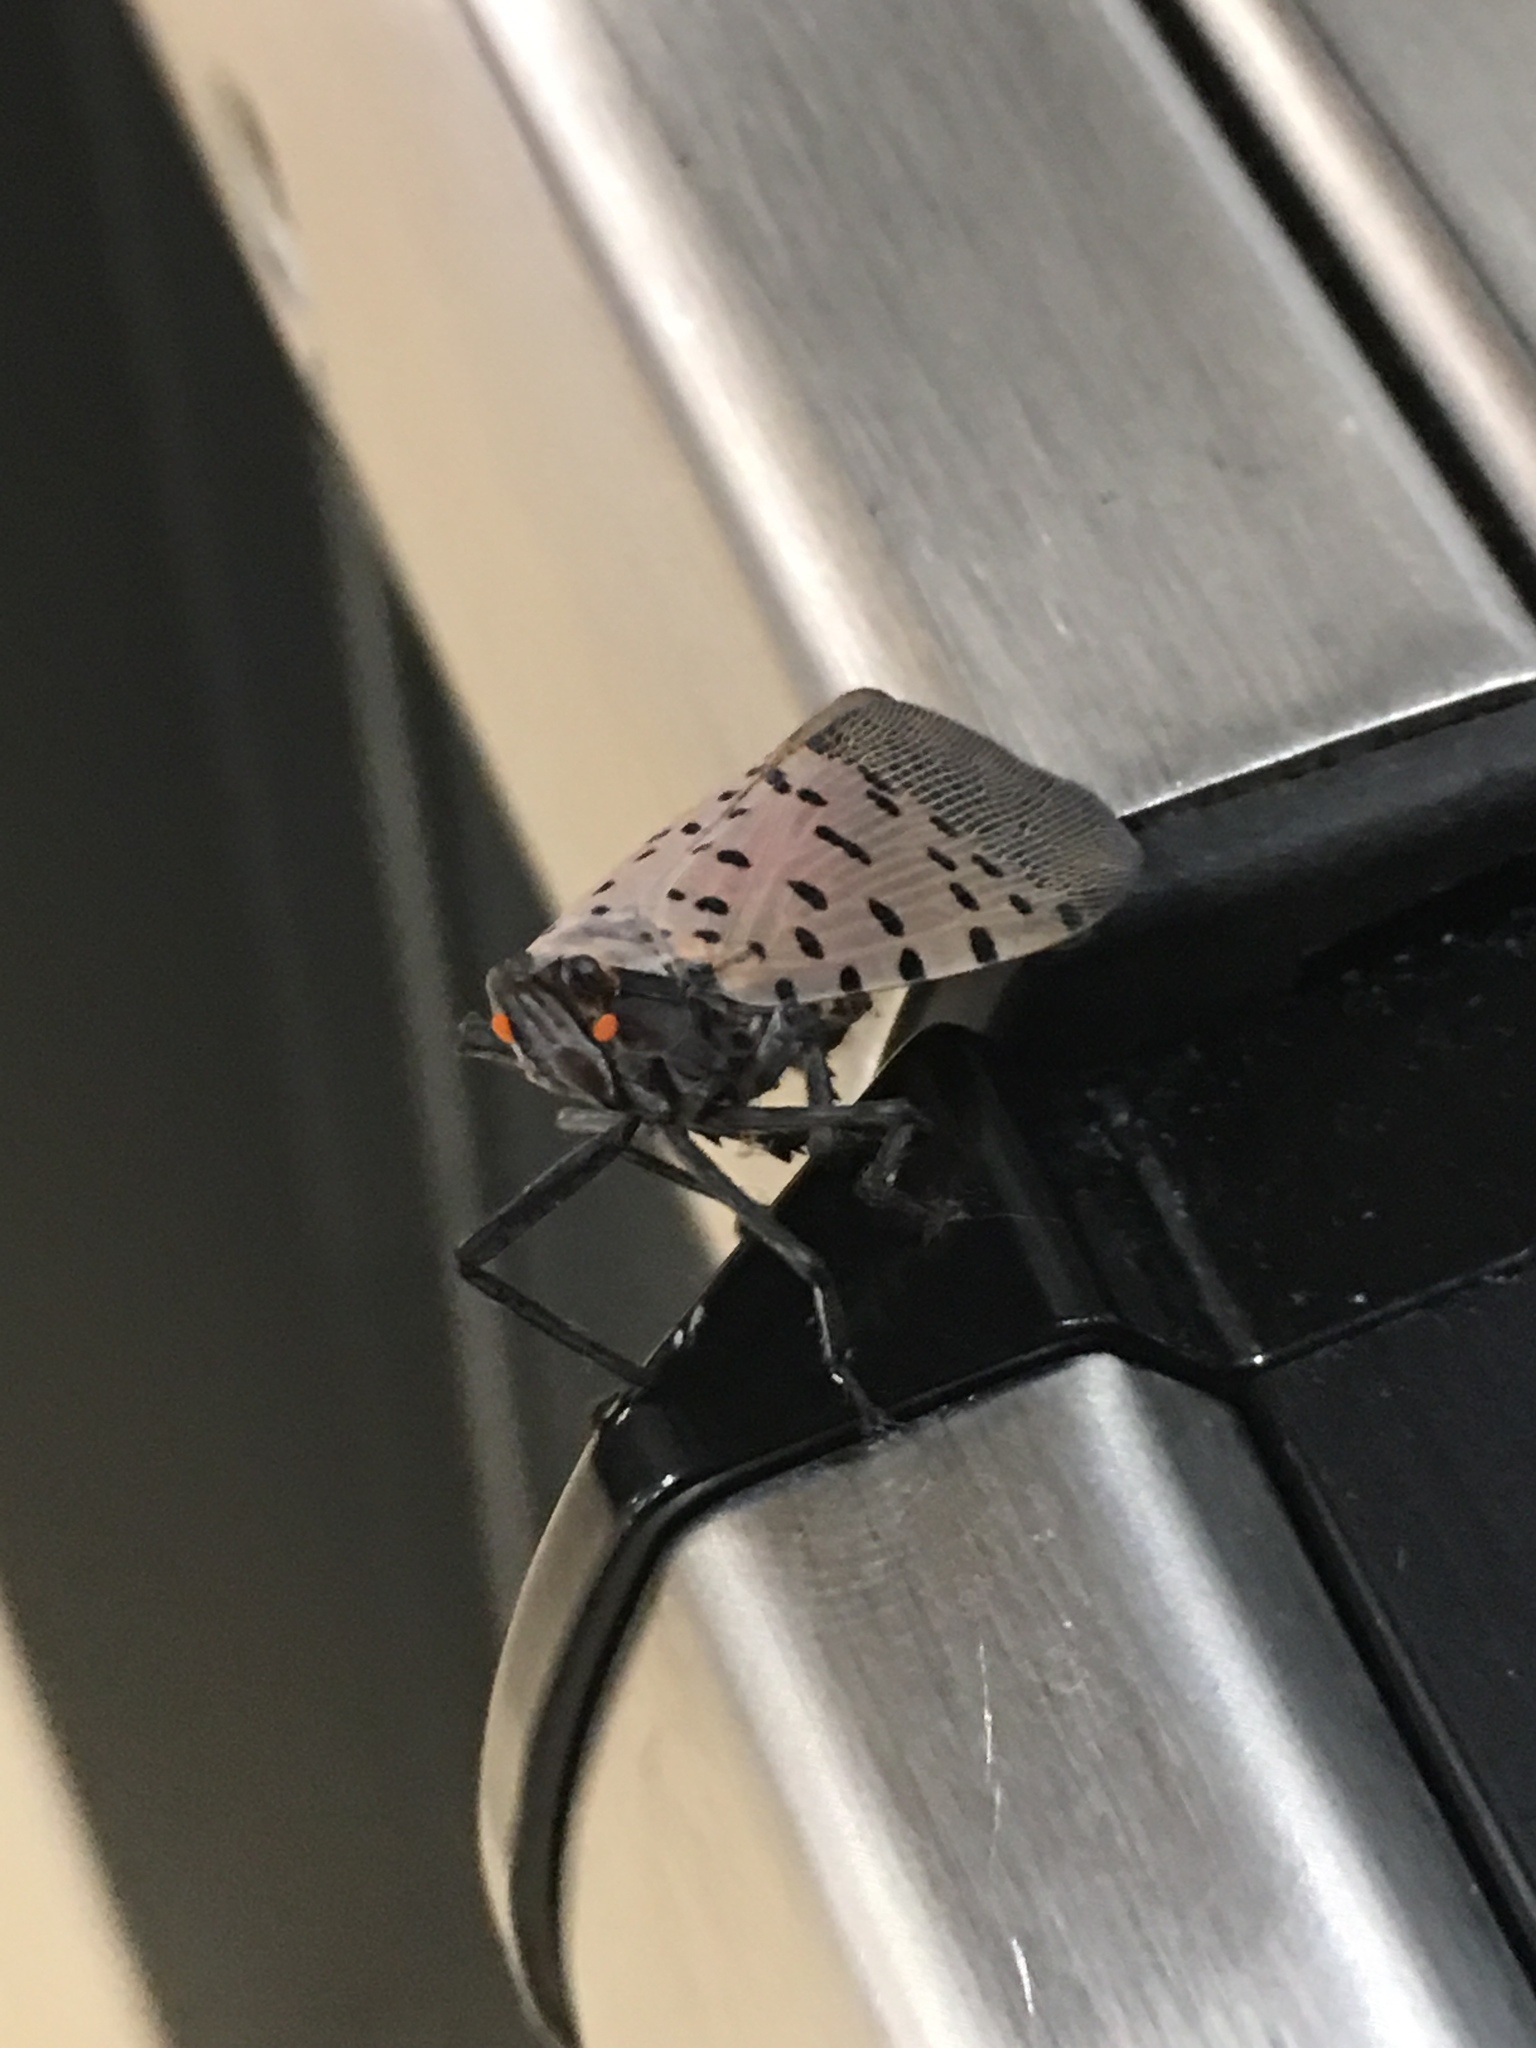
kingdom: Animalia
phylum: Arthropoda
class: Insecta
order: Hemiptera
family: Fulgoridae
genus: Lycorma
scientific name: Lycorma delicatula
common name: Spotted lanternfly
